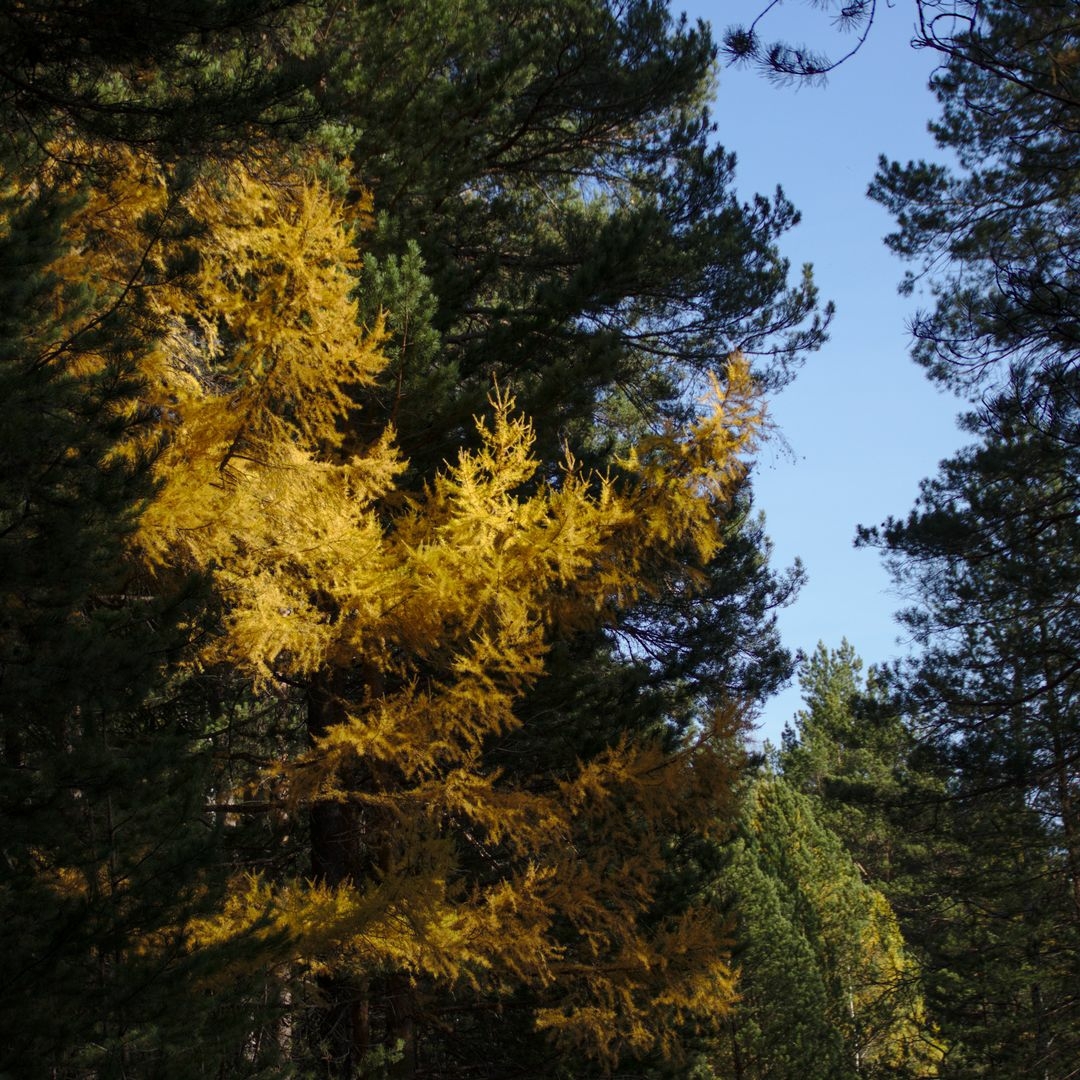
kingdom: Plantae
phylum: Tracheophyta
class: Pinopsida
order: Pinales
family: Pinaceae
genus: Larix
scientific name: Larix sibirica
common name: Siberian larch
